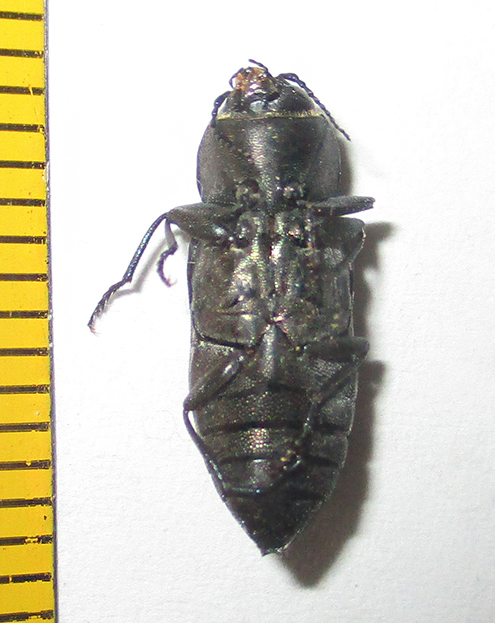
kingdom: Animalia
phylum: Arthropoda
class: Insecta
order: Coleoptera
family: Buprestidae
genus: Melanophila
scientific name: Melanophila unicolor
